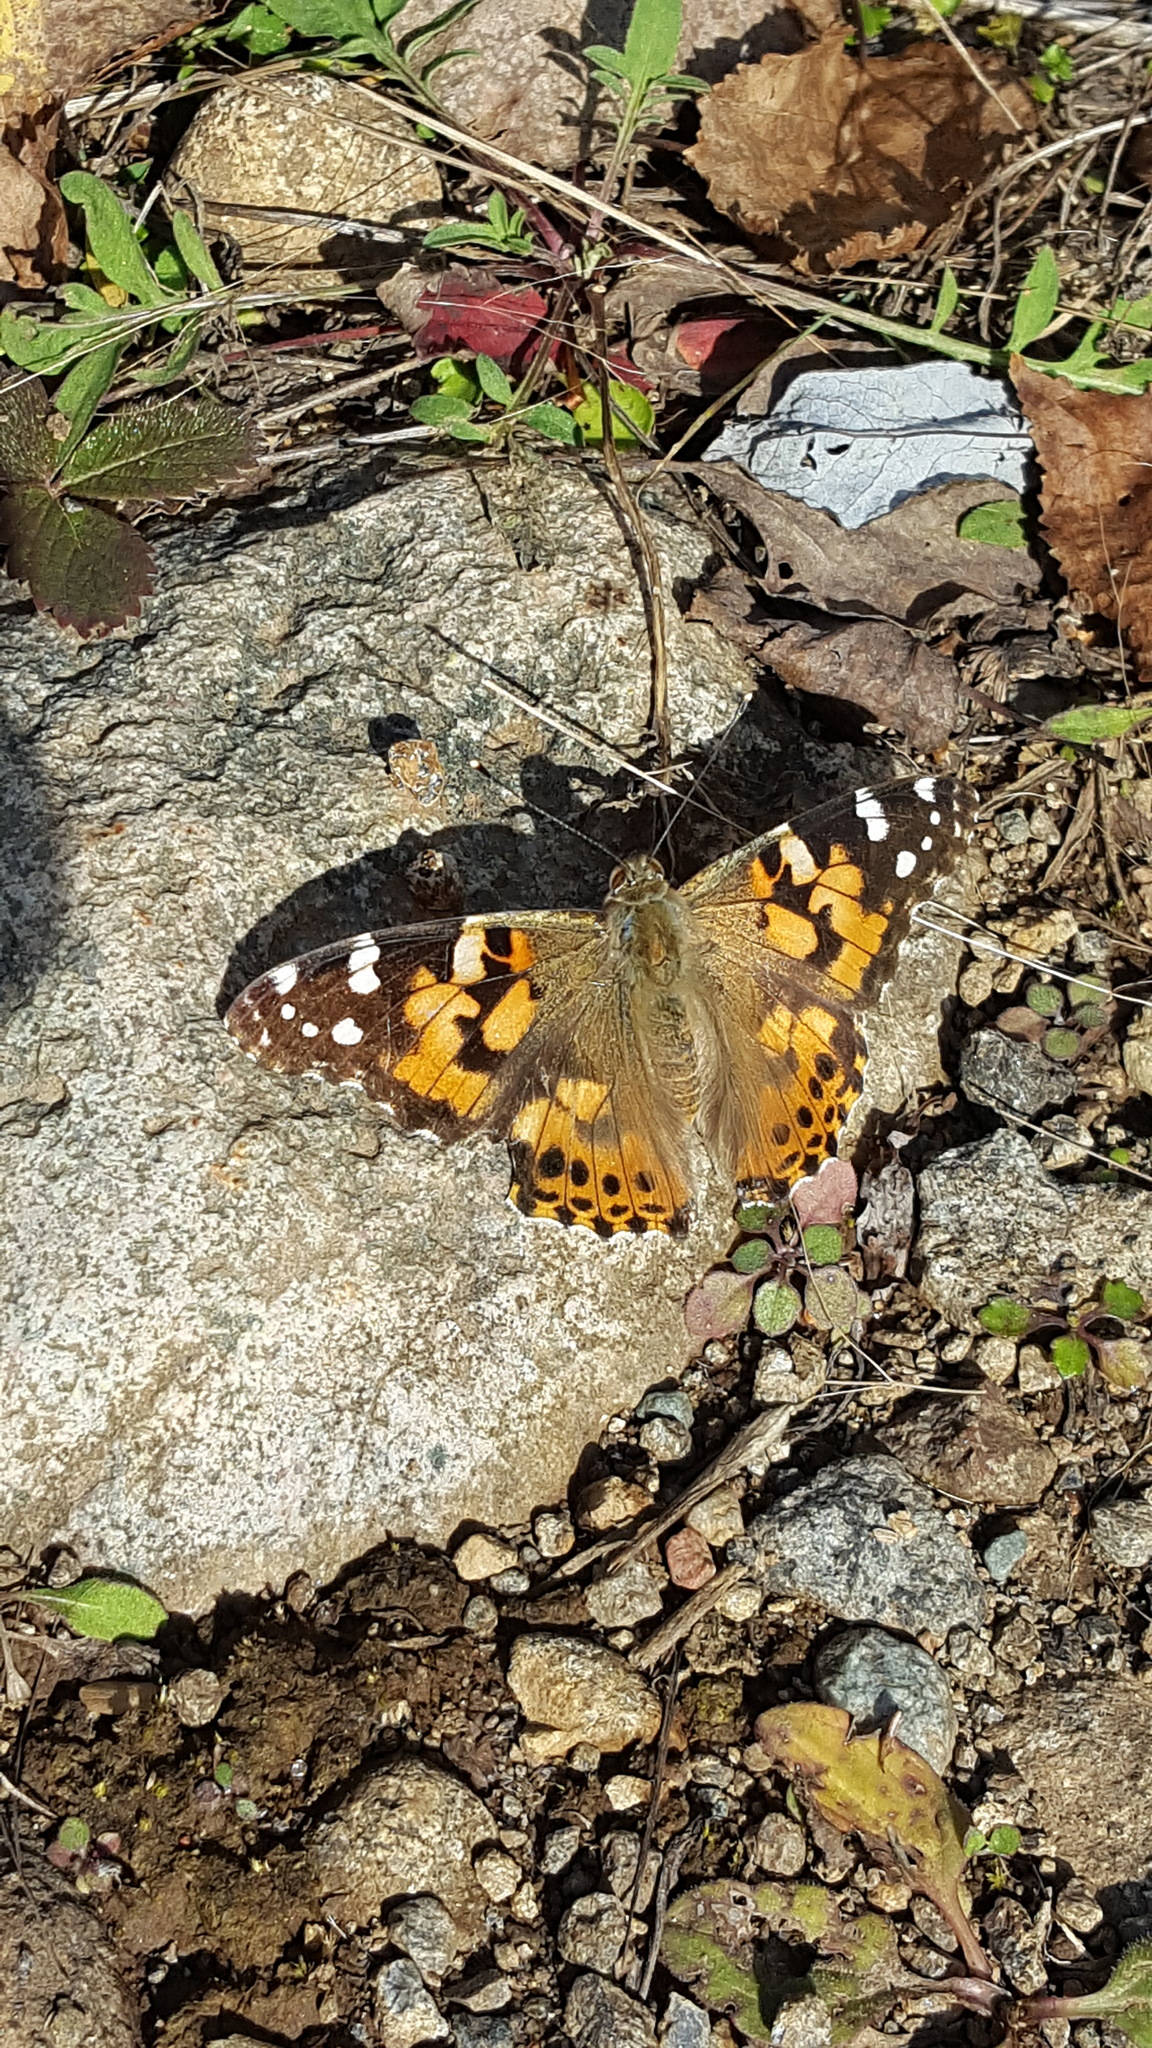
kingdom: Animalia
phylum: Arthropoda
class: Insecta
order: Lepidoptera
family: Nymphalidae
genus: Vanessa
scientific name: Vanessa cardui
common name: Painted lady
